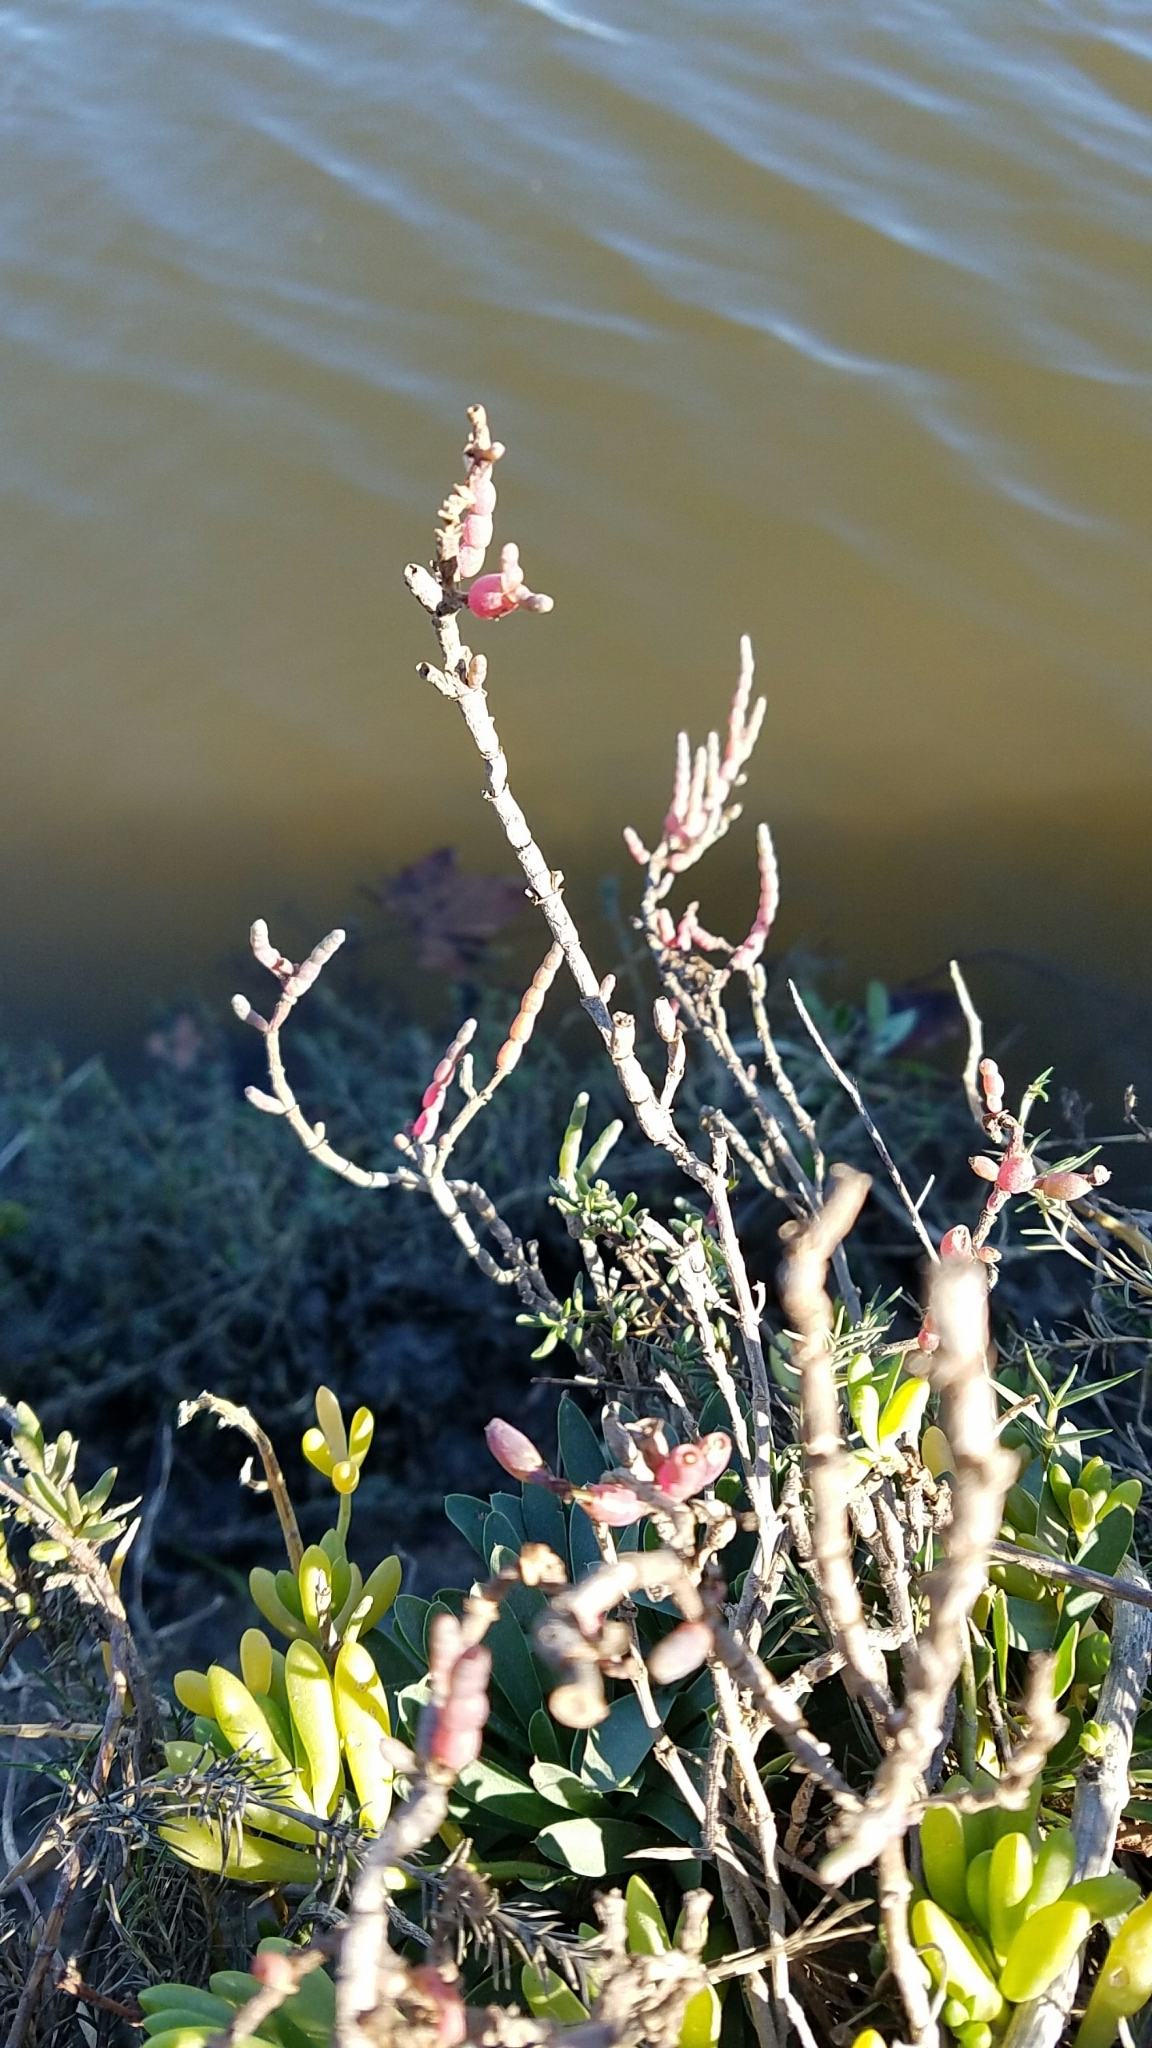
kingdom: Plantae
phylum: Tracheophyta
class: Magnoliopsida
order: Caryophyllales
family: Amaranthaceae
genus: Salicornia
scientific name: Salicornia pacifica
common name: Pacific glasswort
